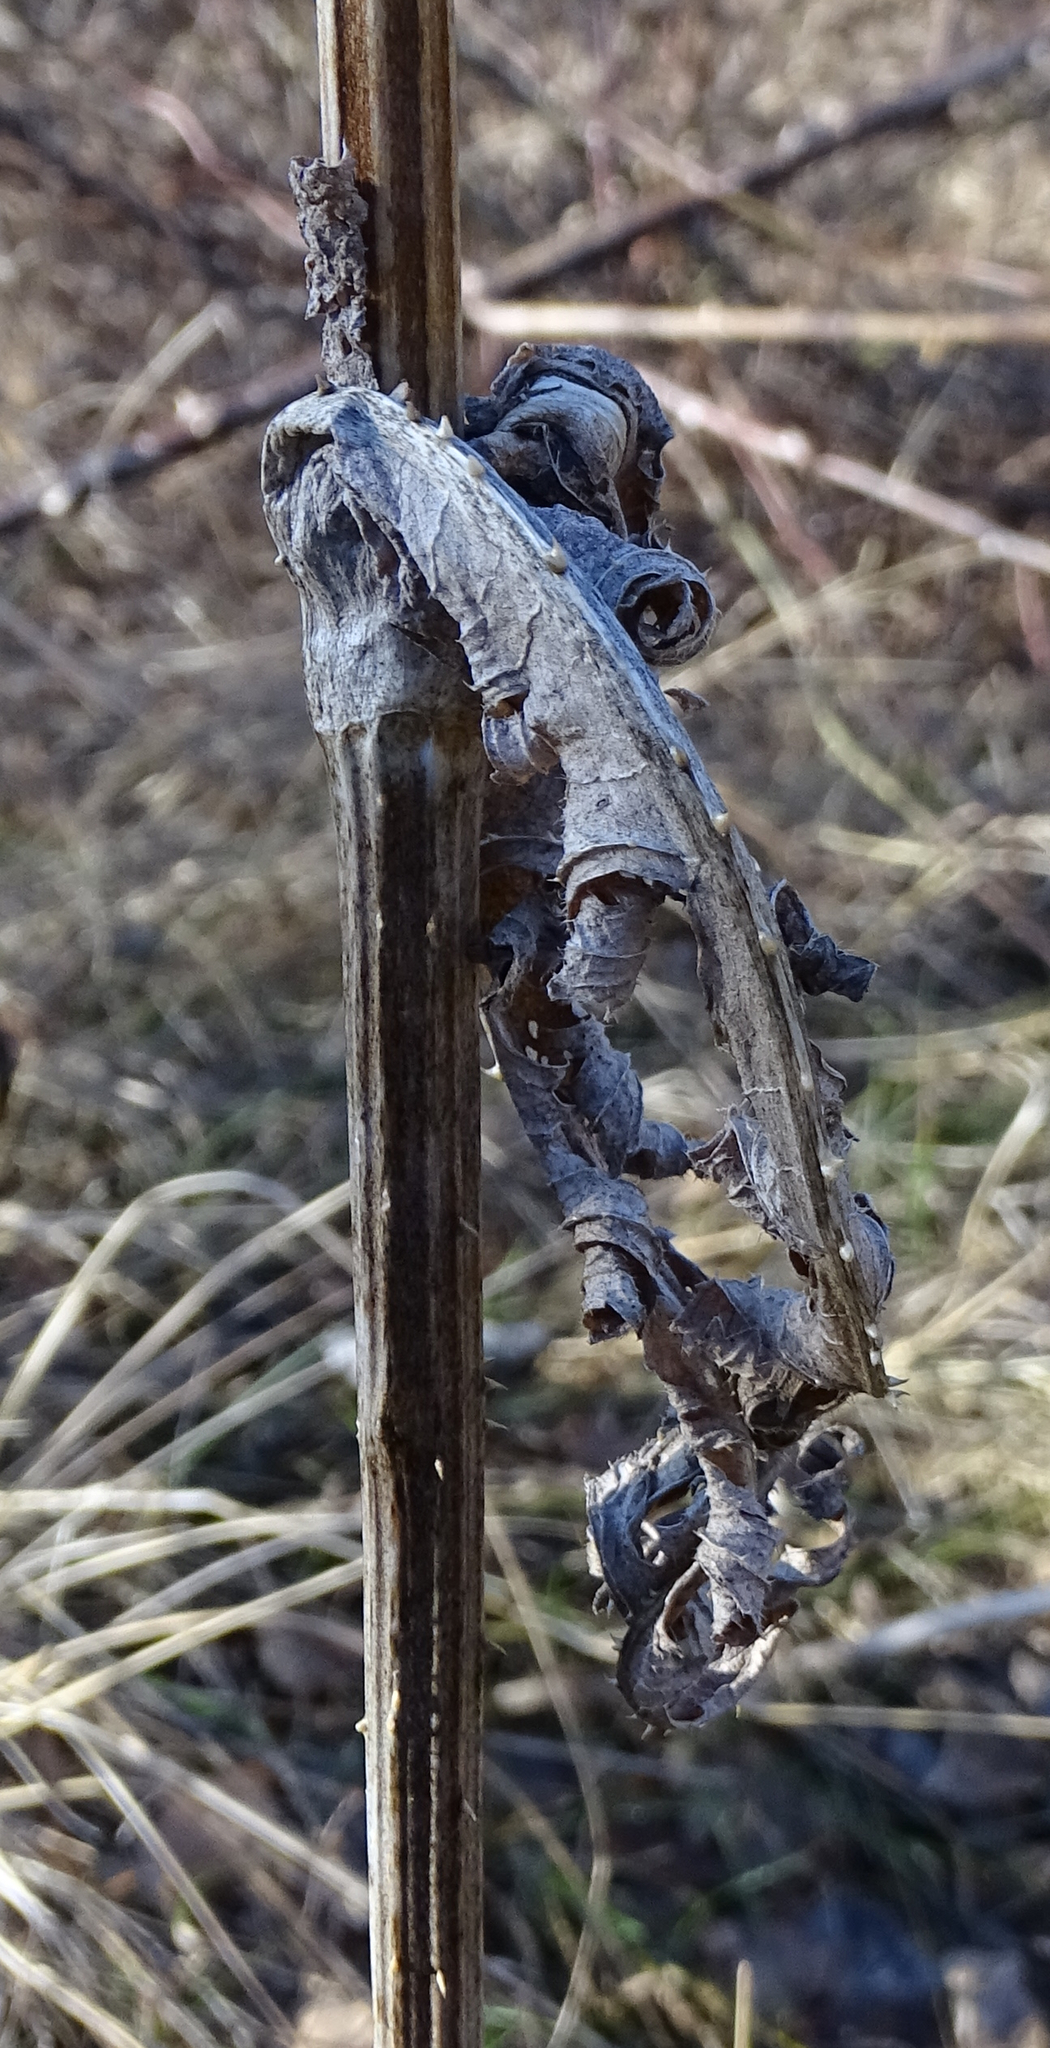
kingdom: Plantae
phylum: Tracheophyta
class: Magnoliopsida
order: Dipsacales
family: Caprifoliaceae
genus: Dipsacus
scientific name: Dipsacus laciniatus
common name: Cut-leaved teasel
